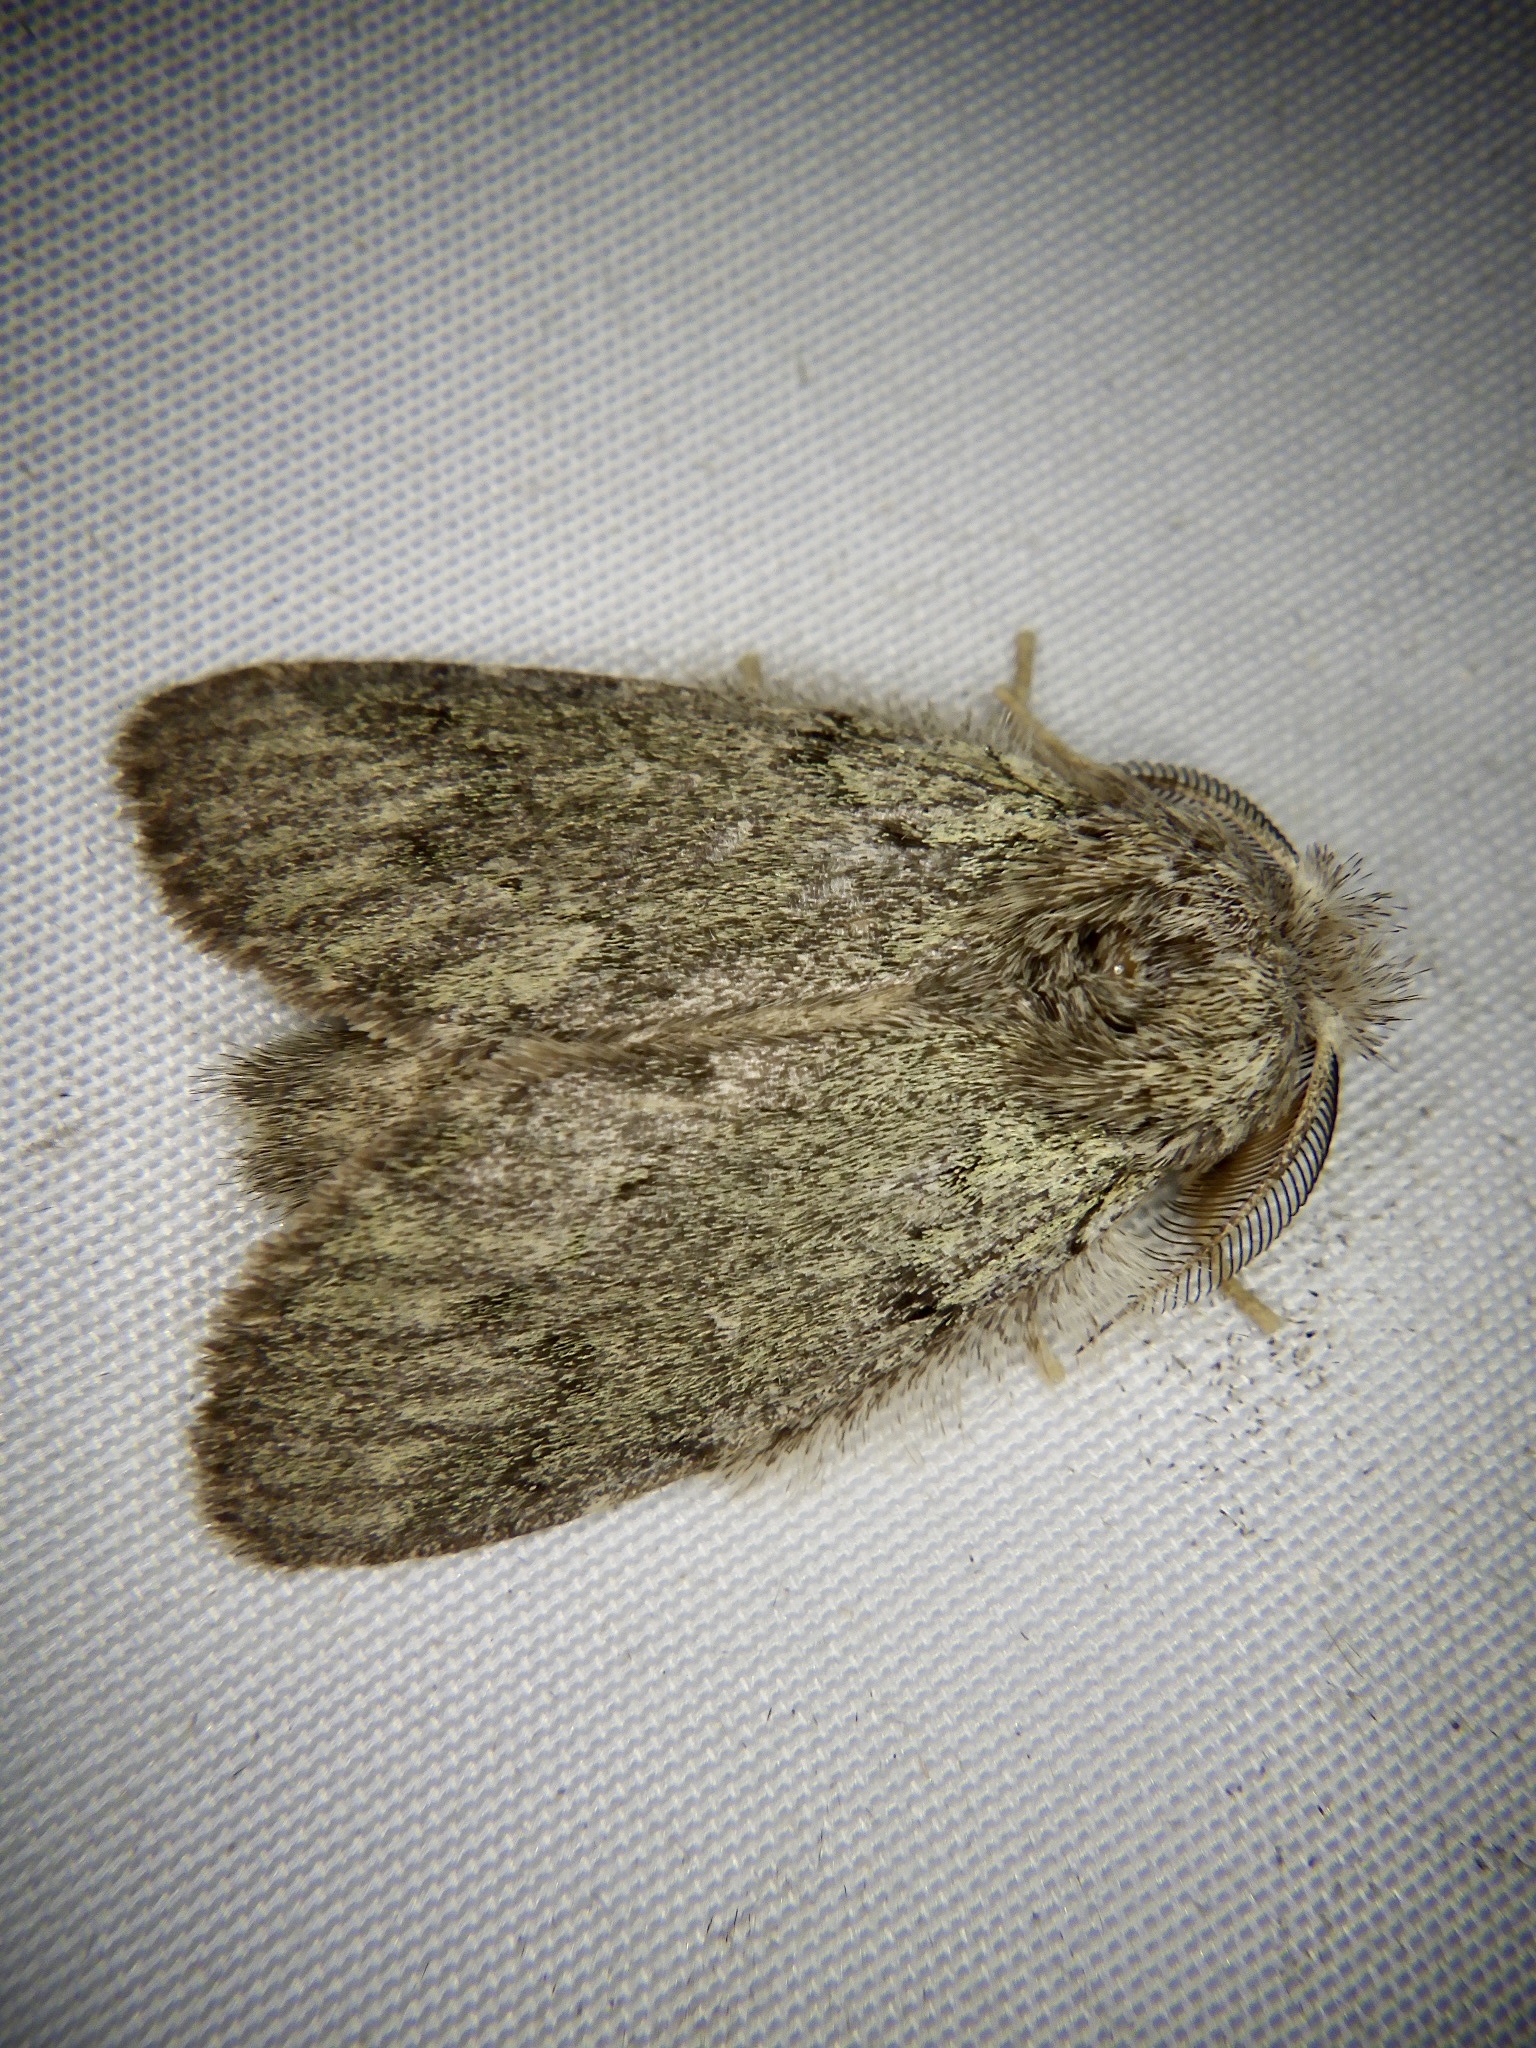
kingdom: Animalia
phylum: Arthropoda
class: Insecta
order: Lepidoptera
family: Notodontidae
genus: Syntypistis
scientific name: Syntypistis punctatella
